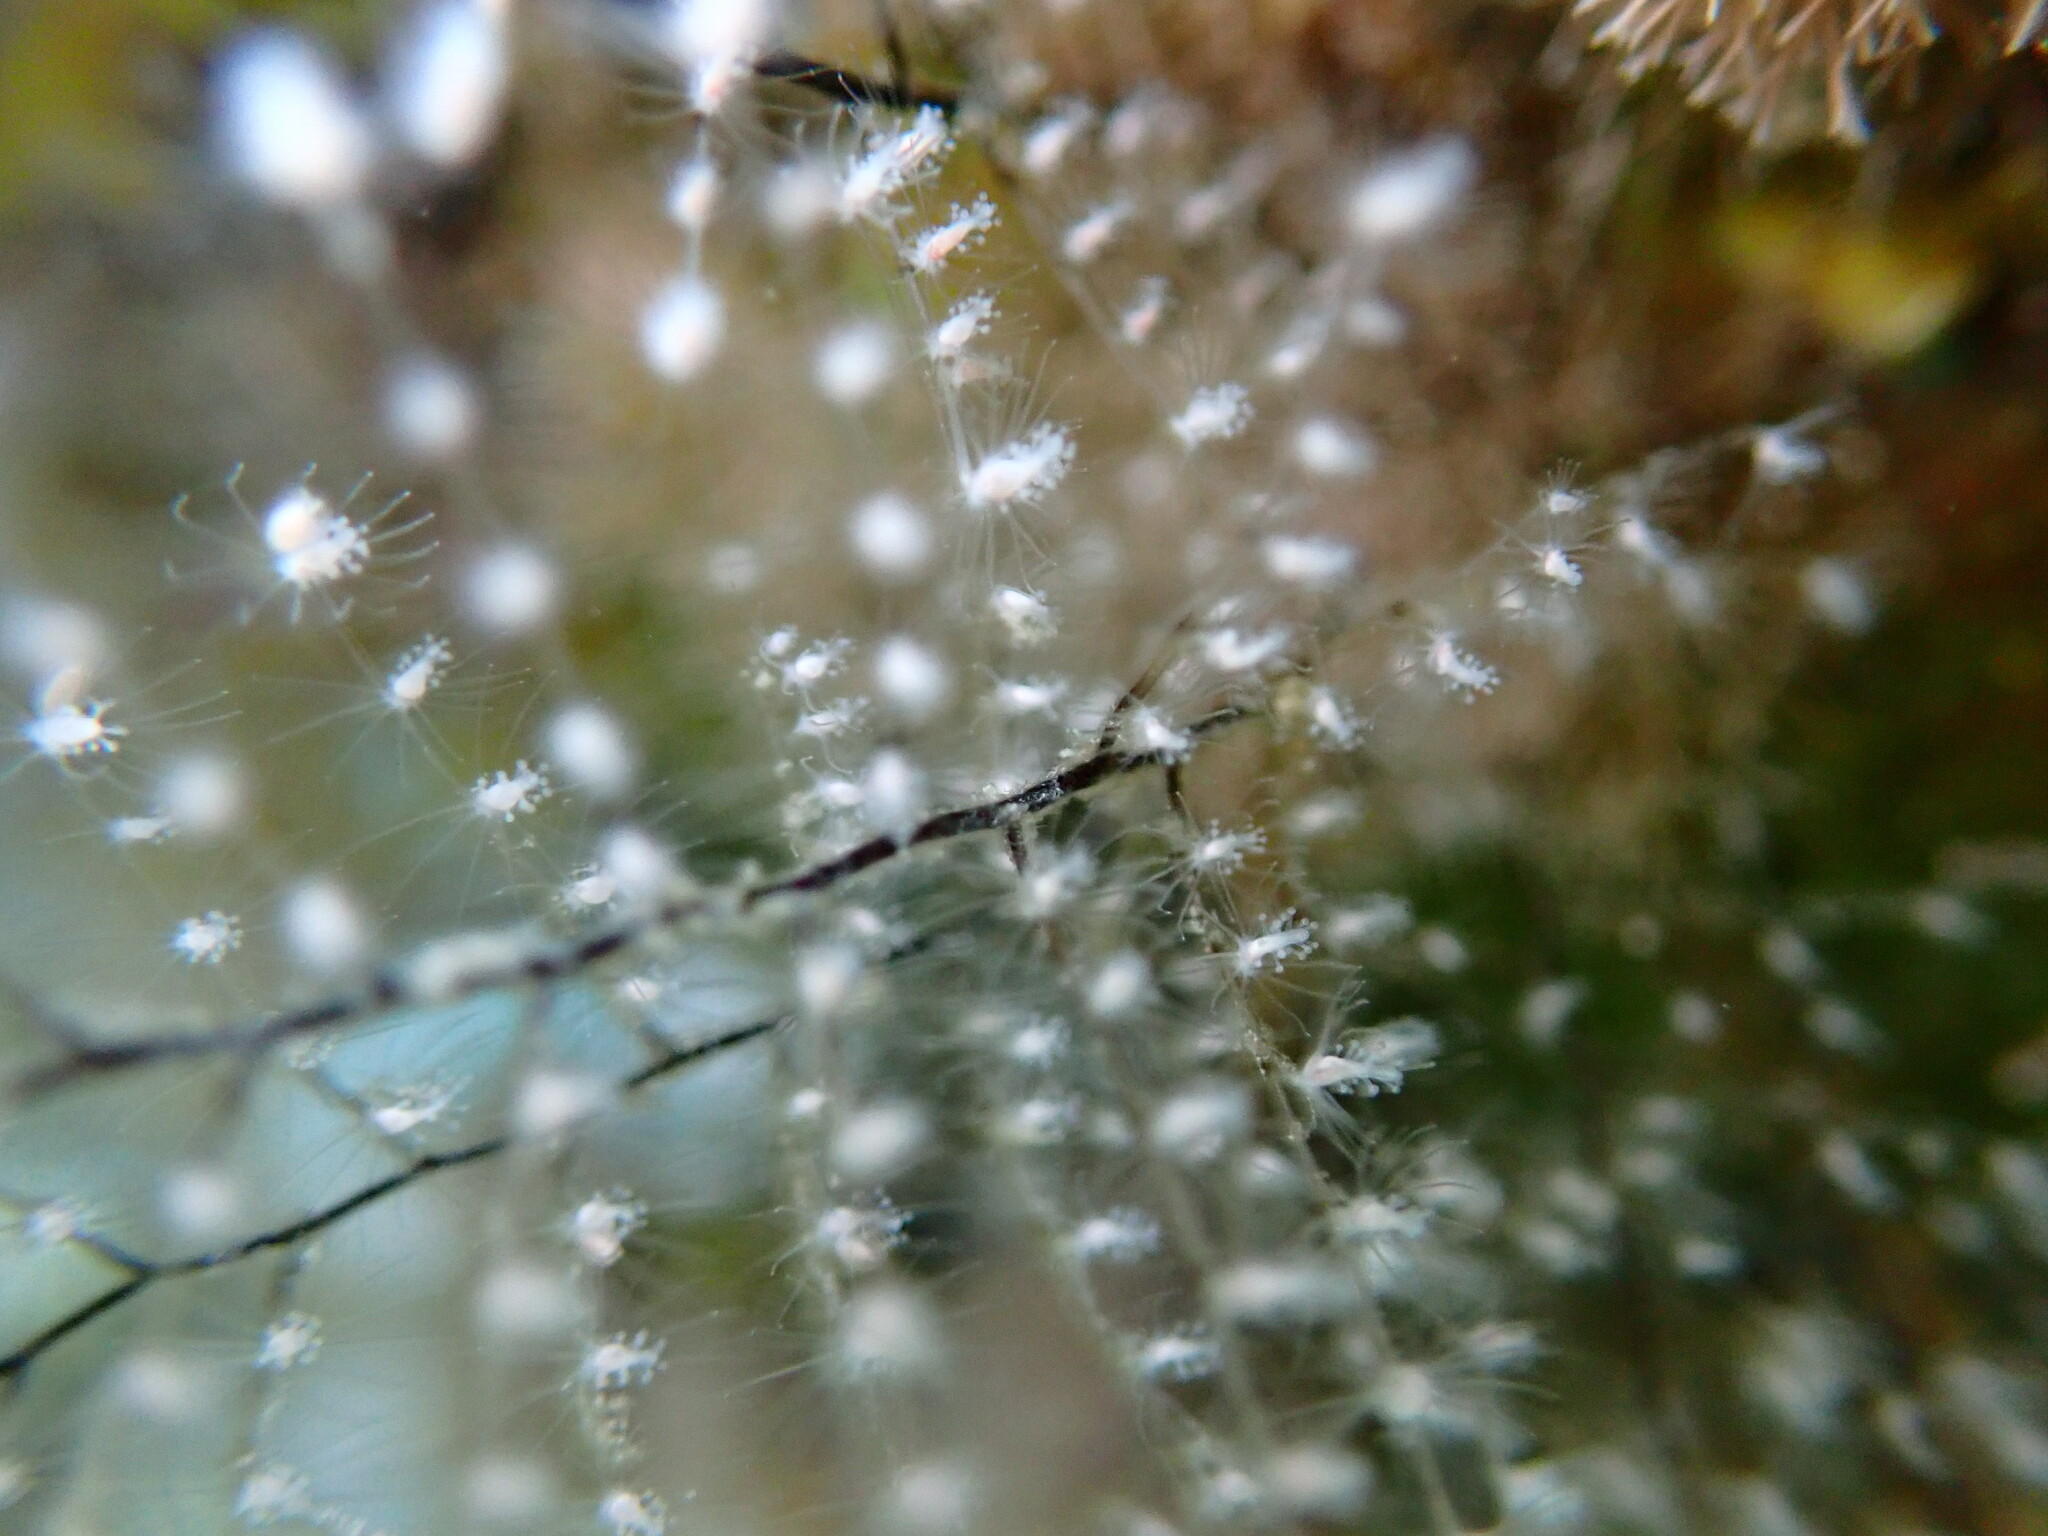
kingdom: Animalia
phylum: Cnidaria
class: Hydrozoa
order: Anthoathecata
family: Pennariidae
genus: Pennaria
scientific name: Pennaria disticha
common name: Feather hydroid
